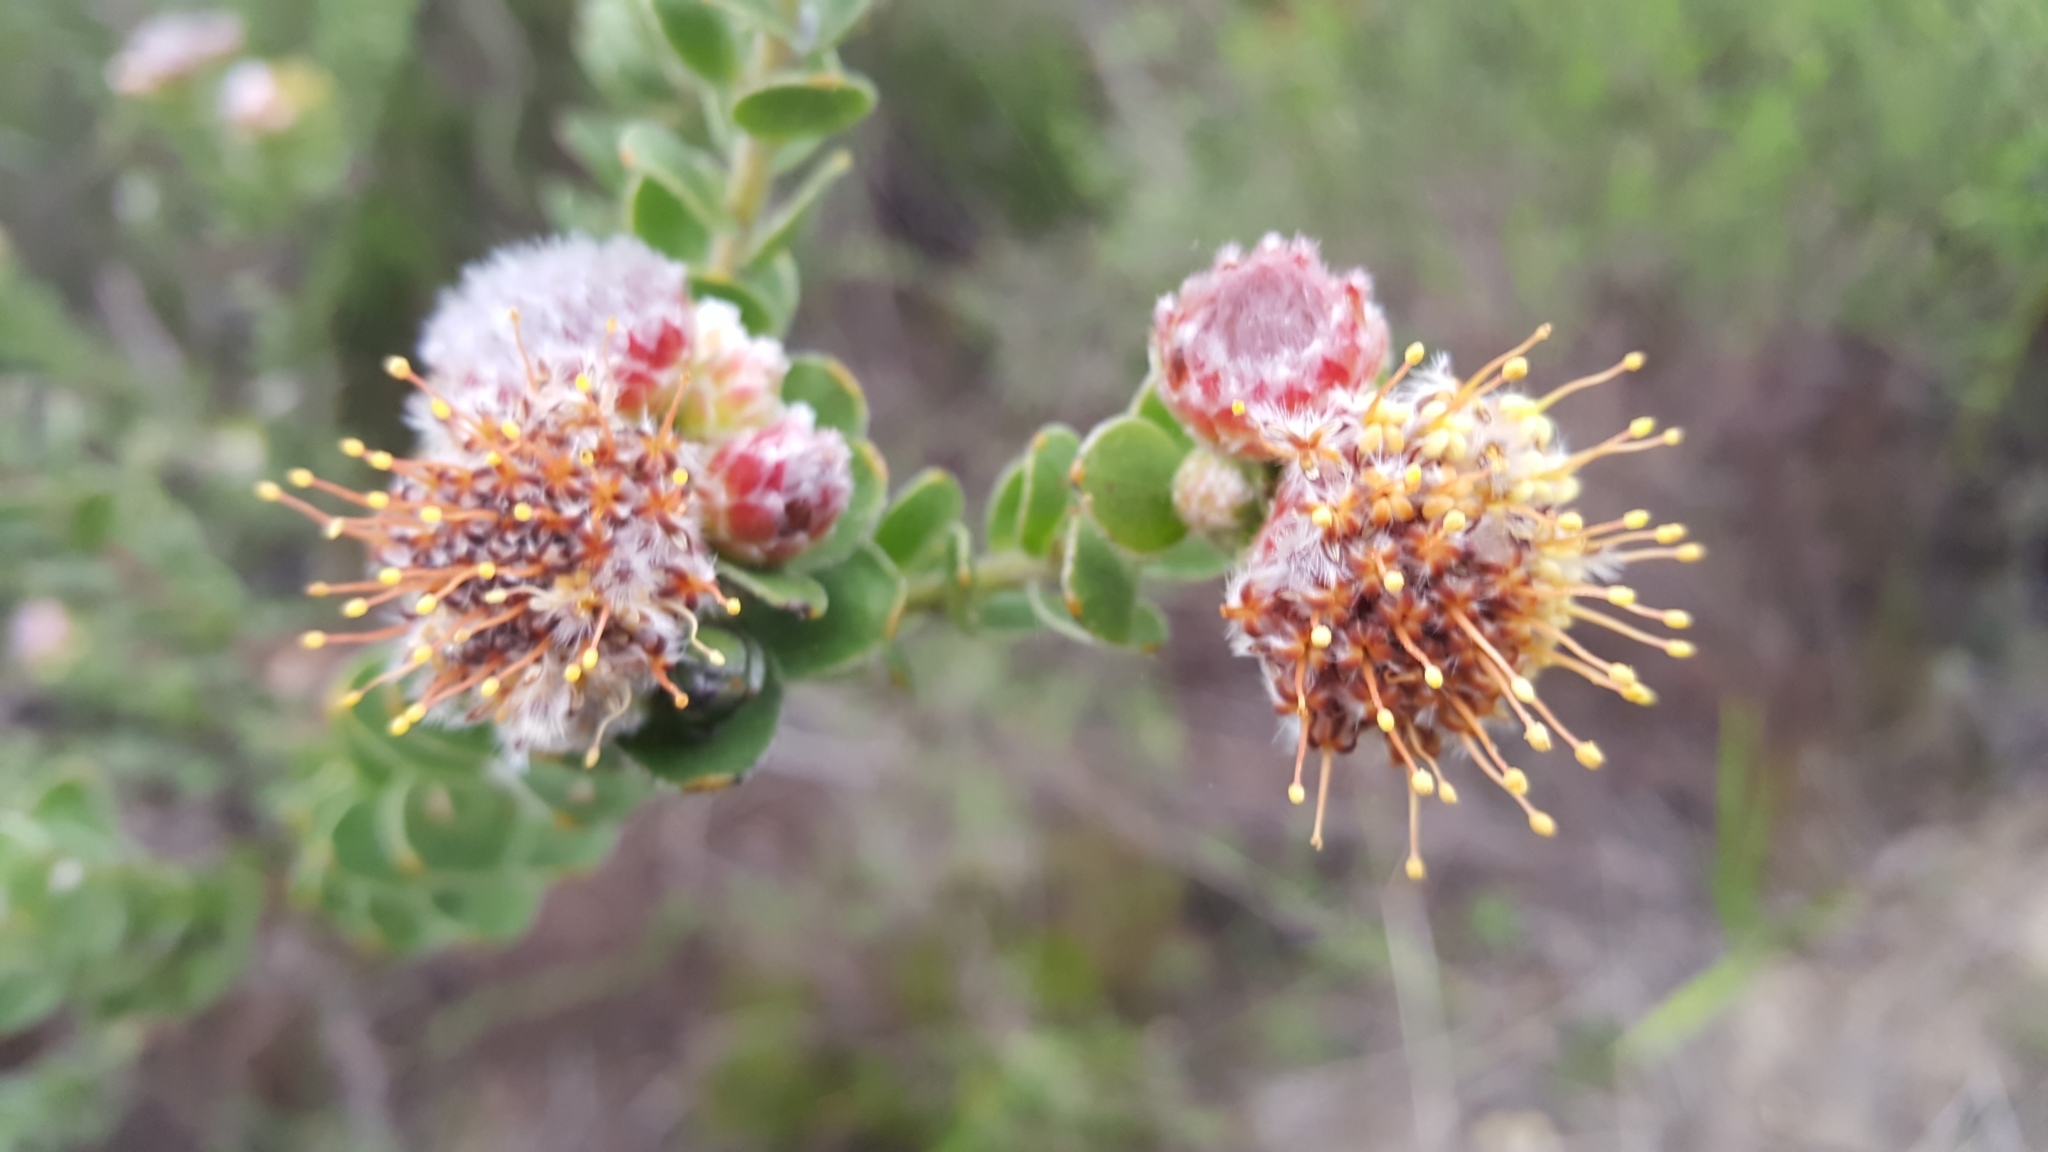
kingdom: Plantae
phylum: Tracheophyta
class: Magnoliopsida
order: Proteales
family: Proteaceae
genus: Leucospermum
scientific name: Leucospermum truncatulum
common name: Oval-leaf pincushion
